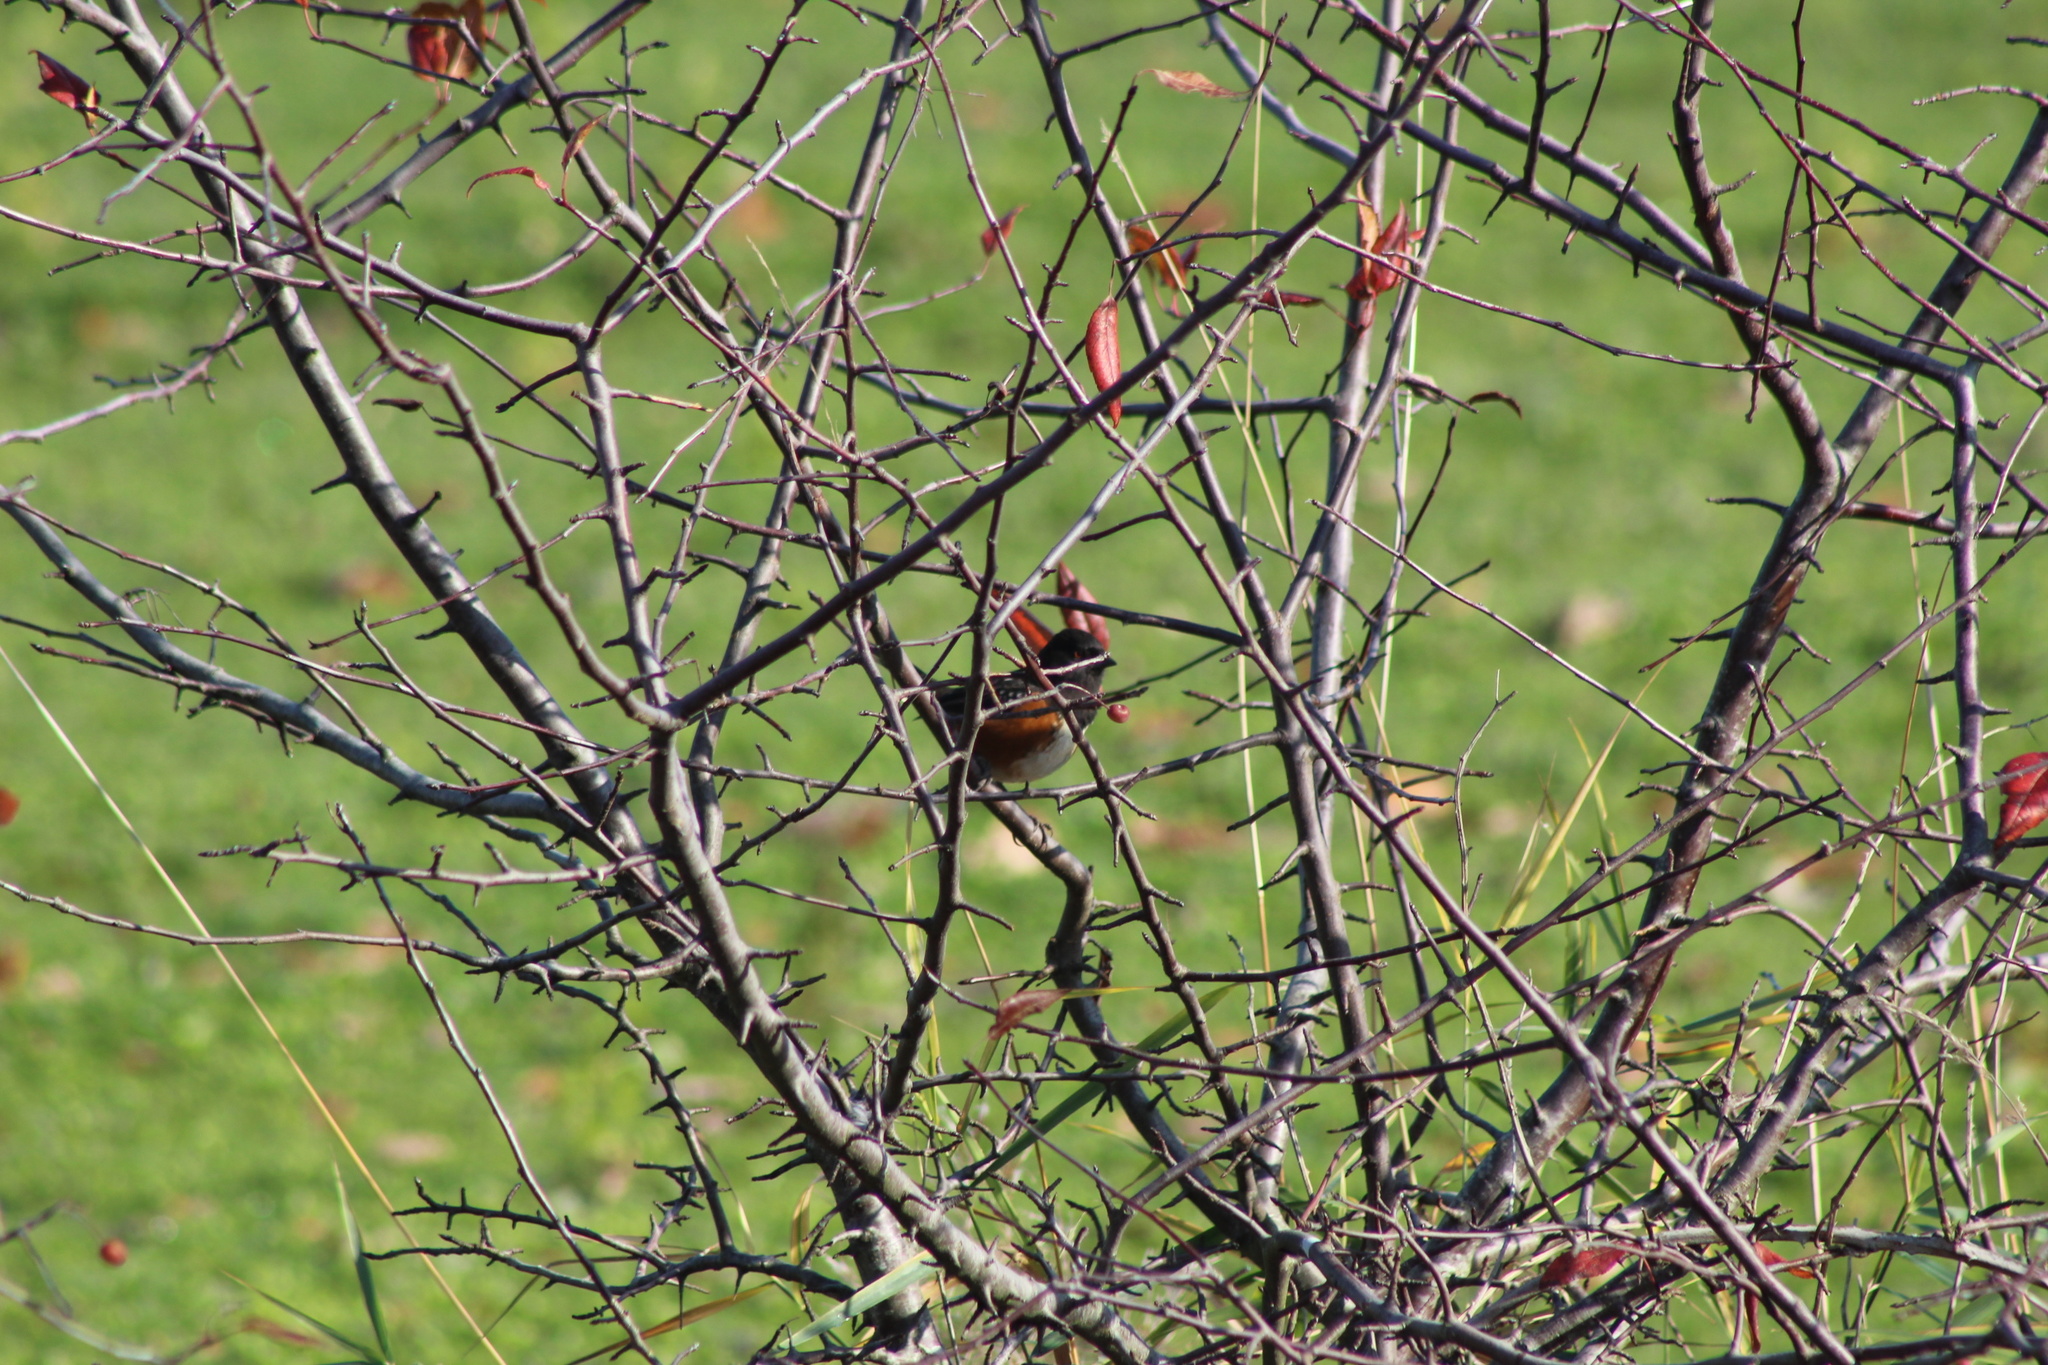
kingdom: Animalia
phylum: Chordata
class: Aves
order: Passeriformes
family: Passerellidae
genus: Pipilo
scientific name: Pipilo maculatus
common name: Spotted towhee
